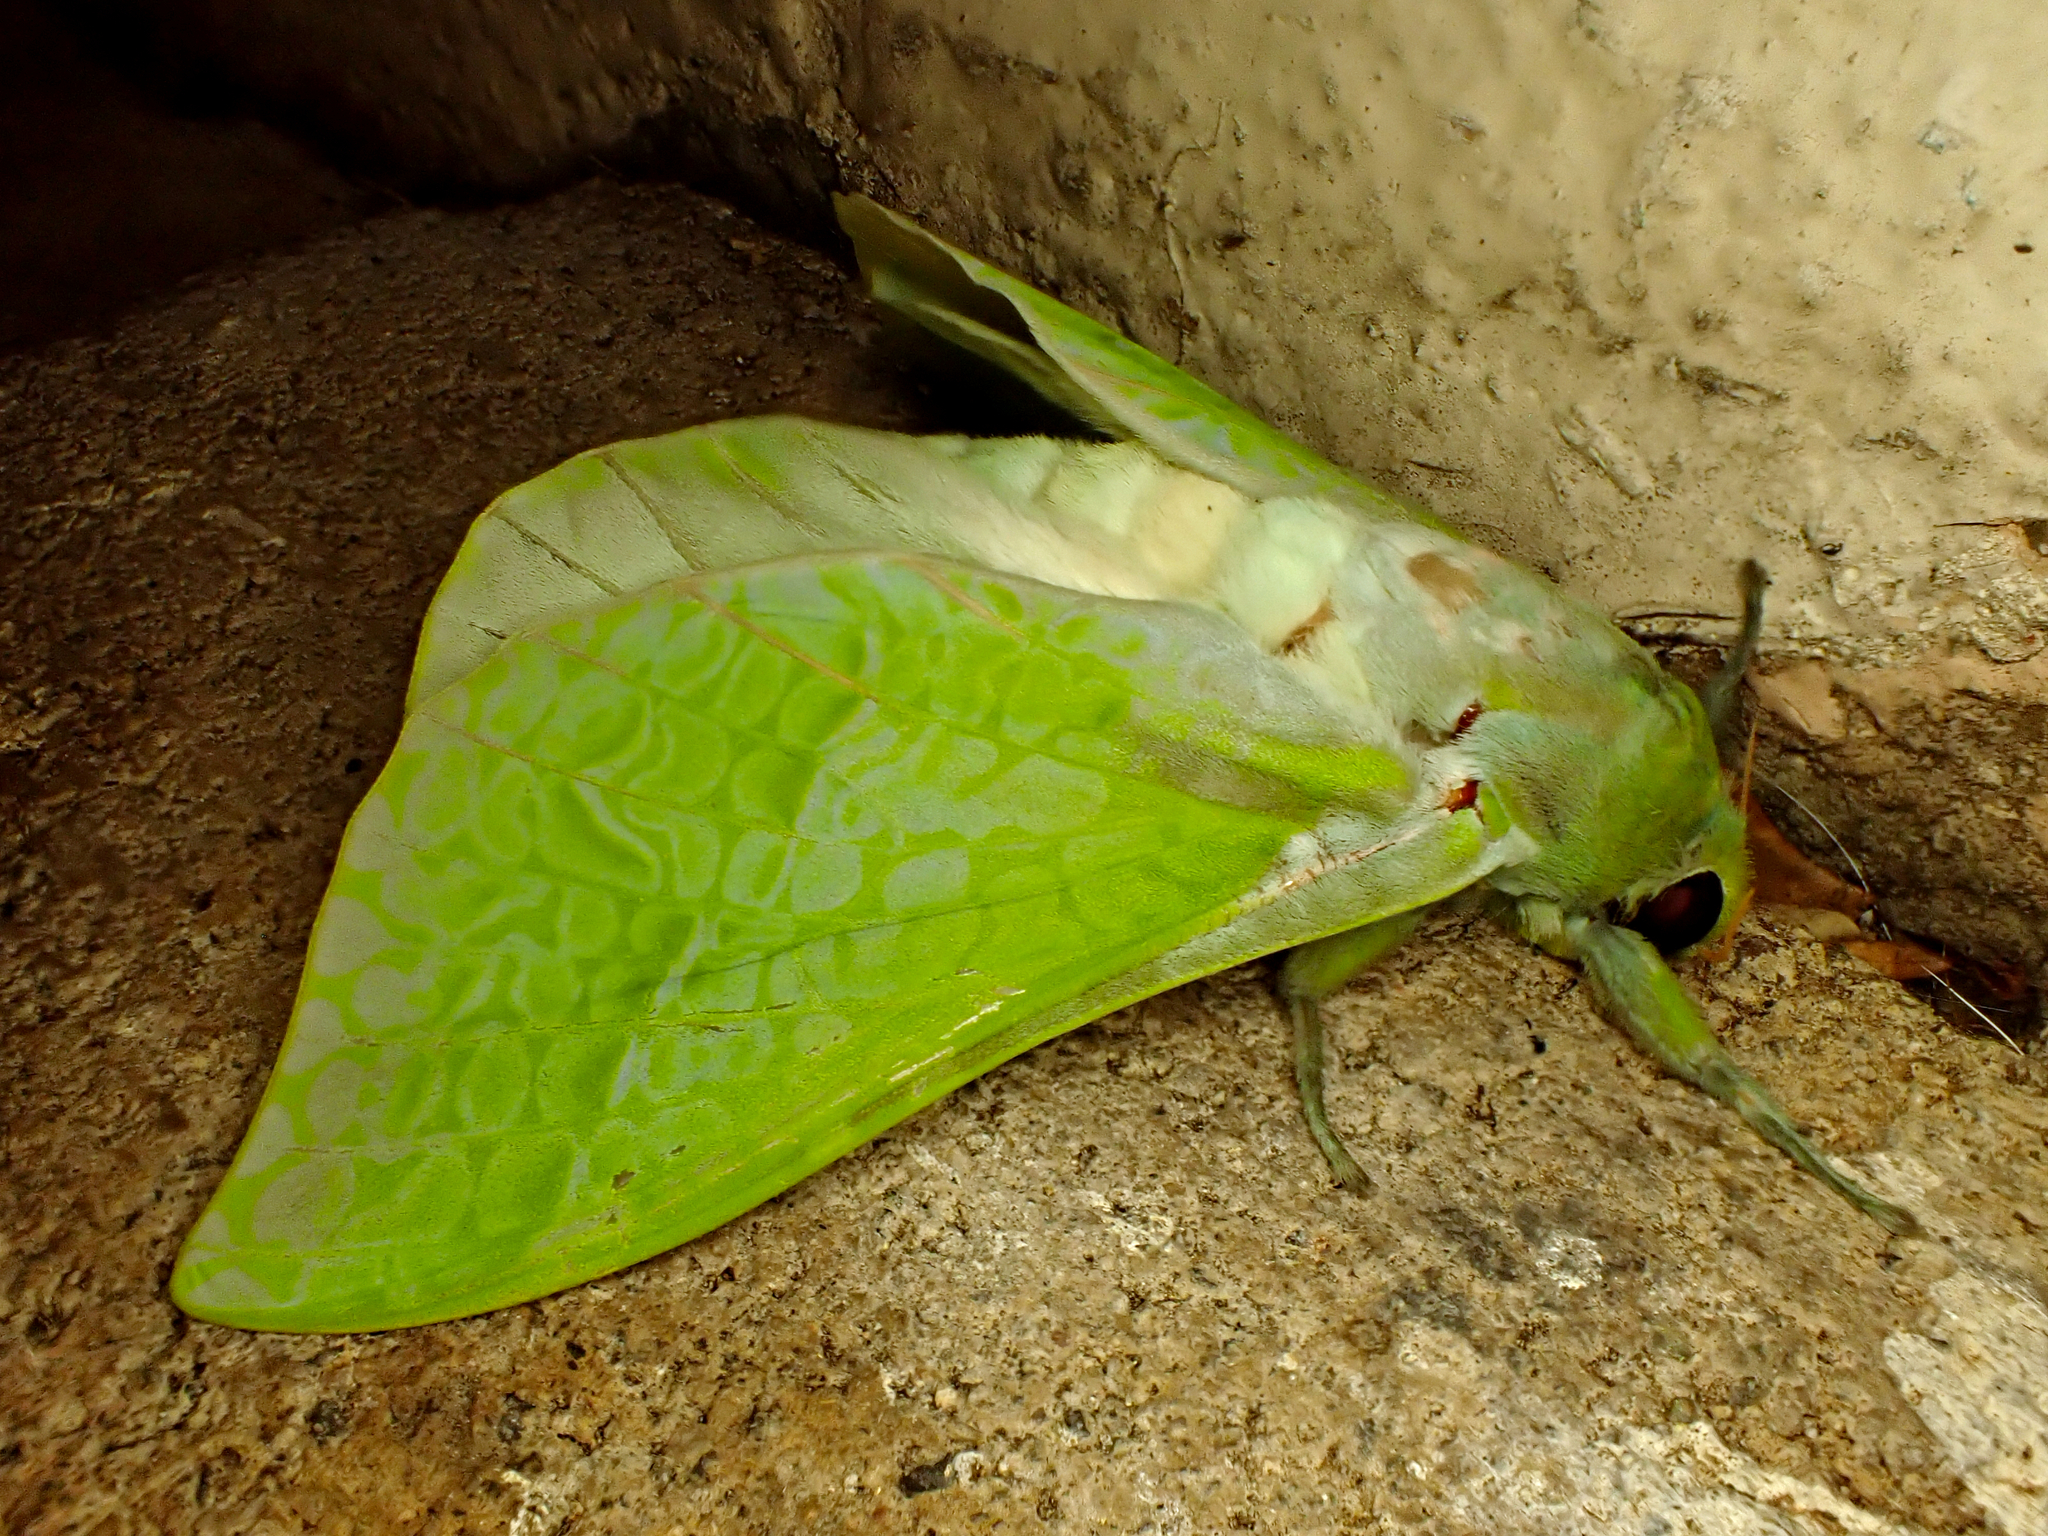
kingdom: Animalia
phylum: Arthropoda
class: Insecta
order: Lepidoptera
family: Hepialidae
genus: Aenetus
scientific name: Aenetus virescens
